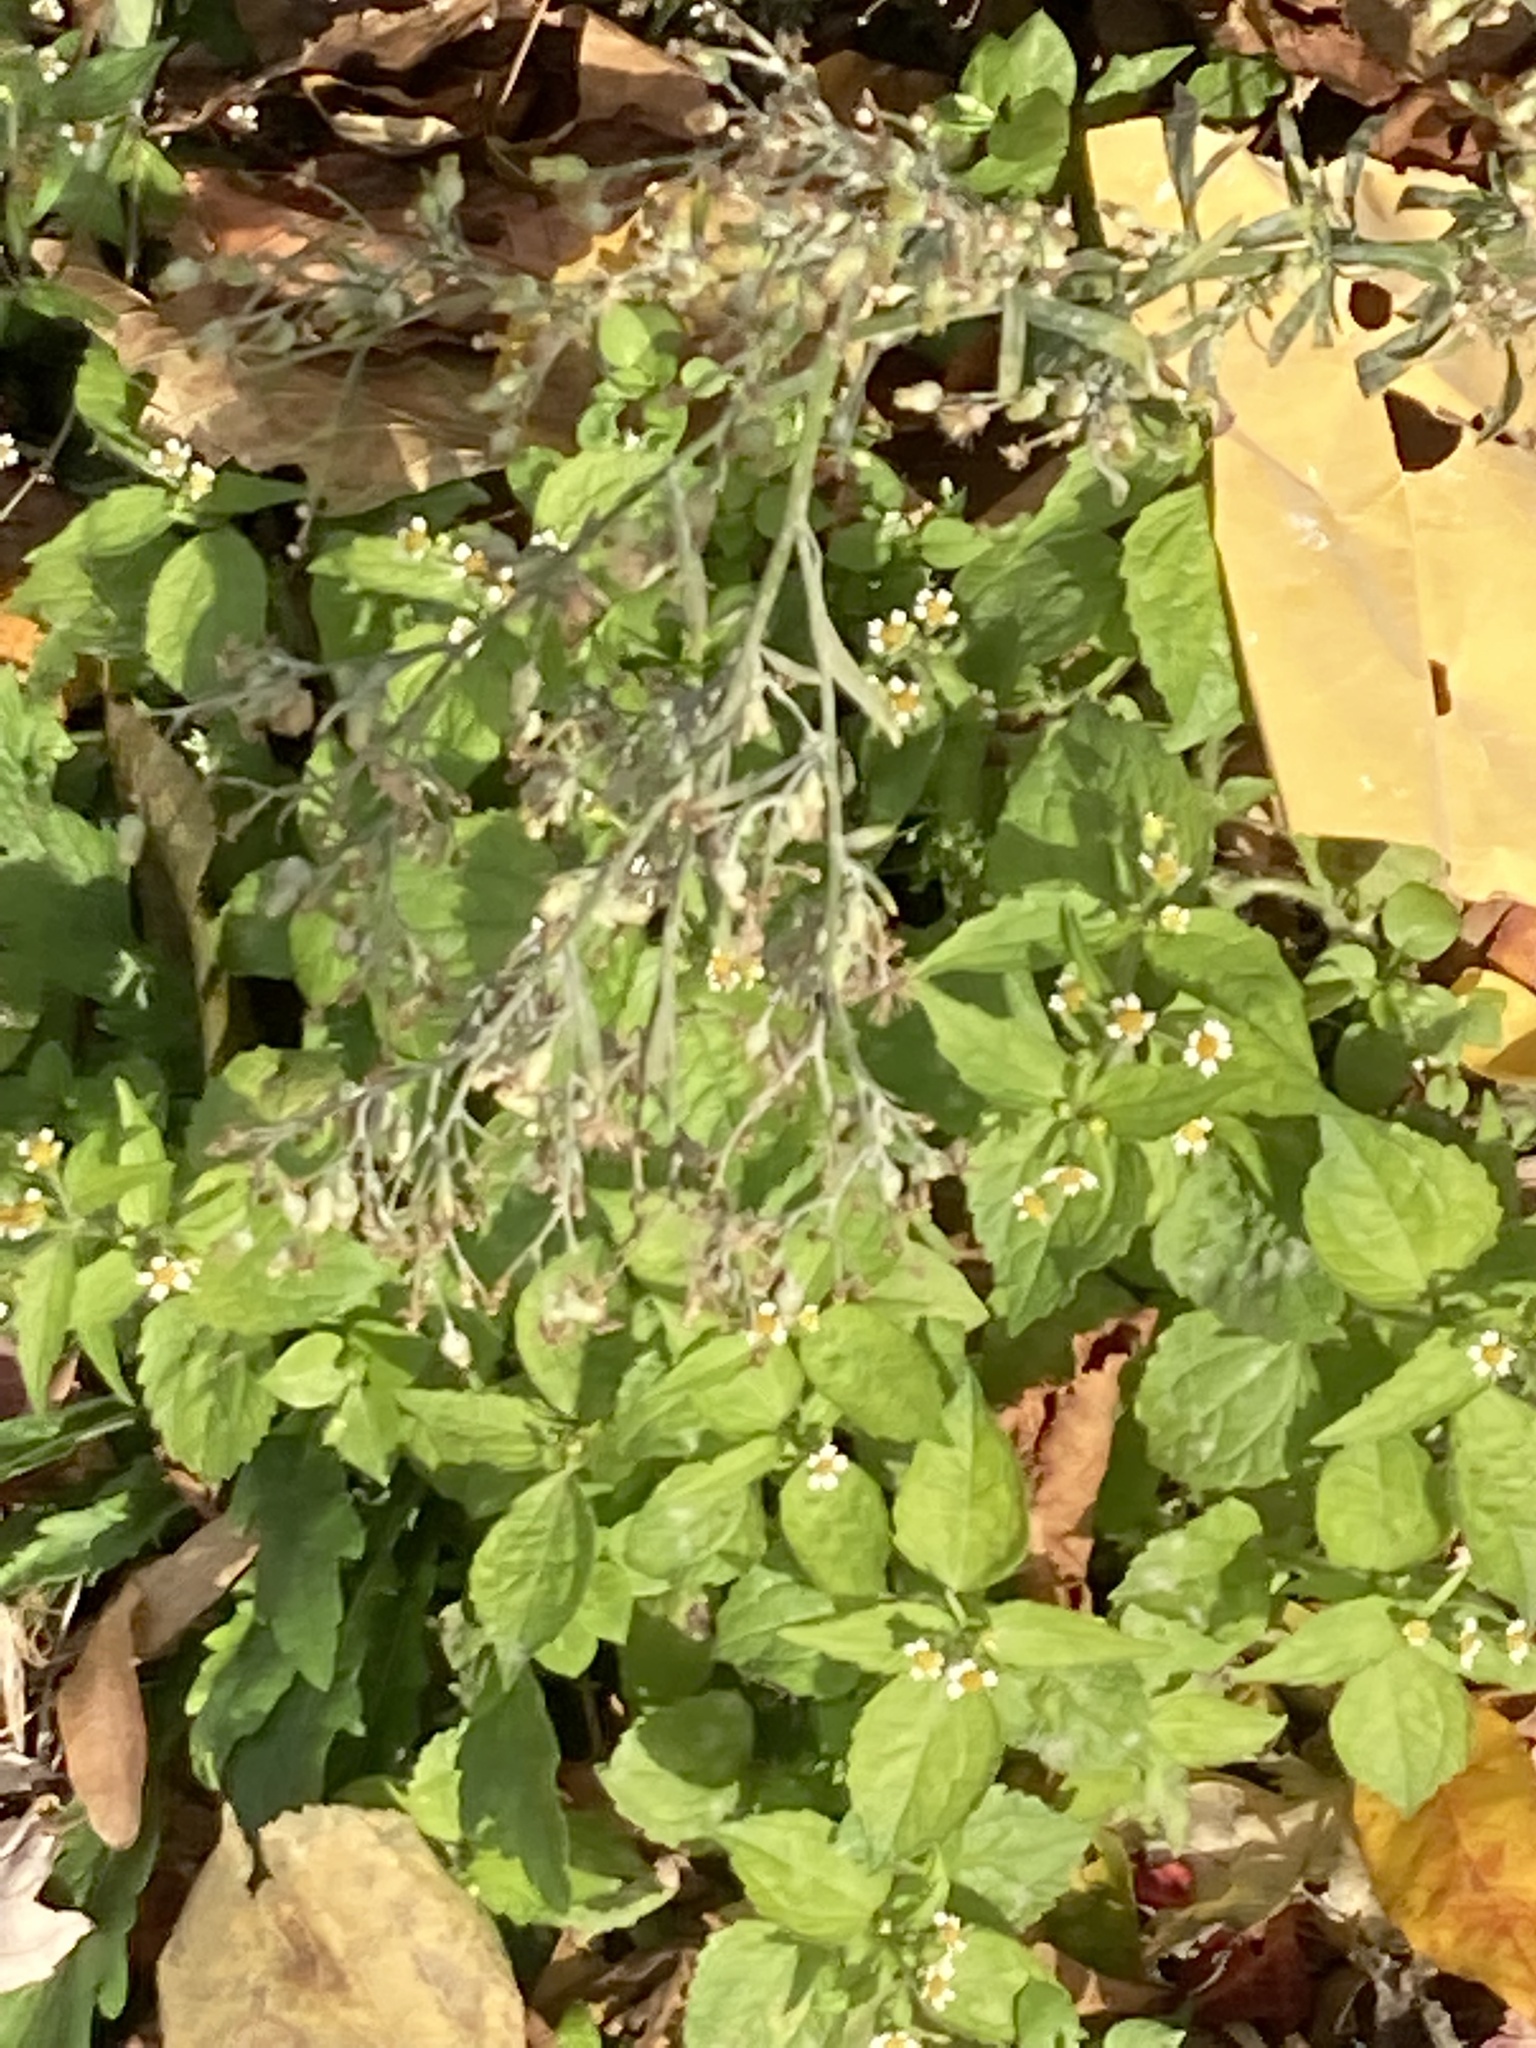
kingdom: Plantae
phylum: Tracheophyta
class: Magnoliopsida
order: Asterales
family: Asteraceae
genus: Galinsoga
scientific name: Galinsoga quadriradiata
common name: Shaggy soldier
